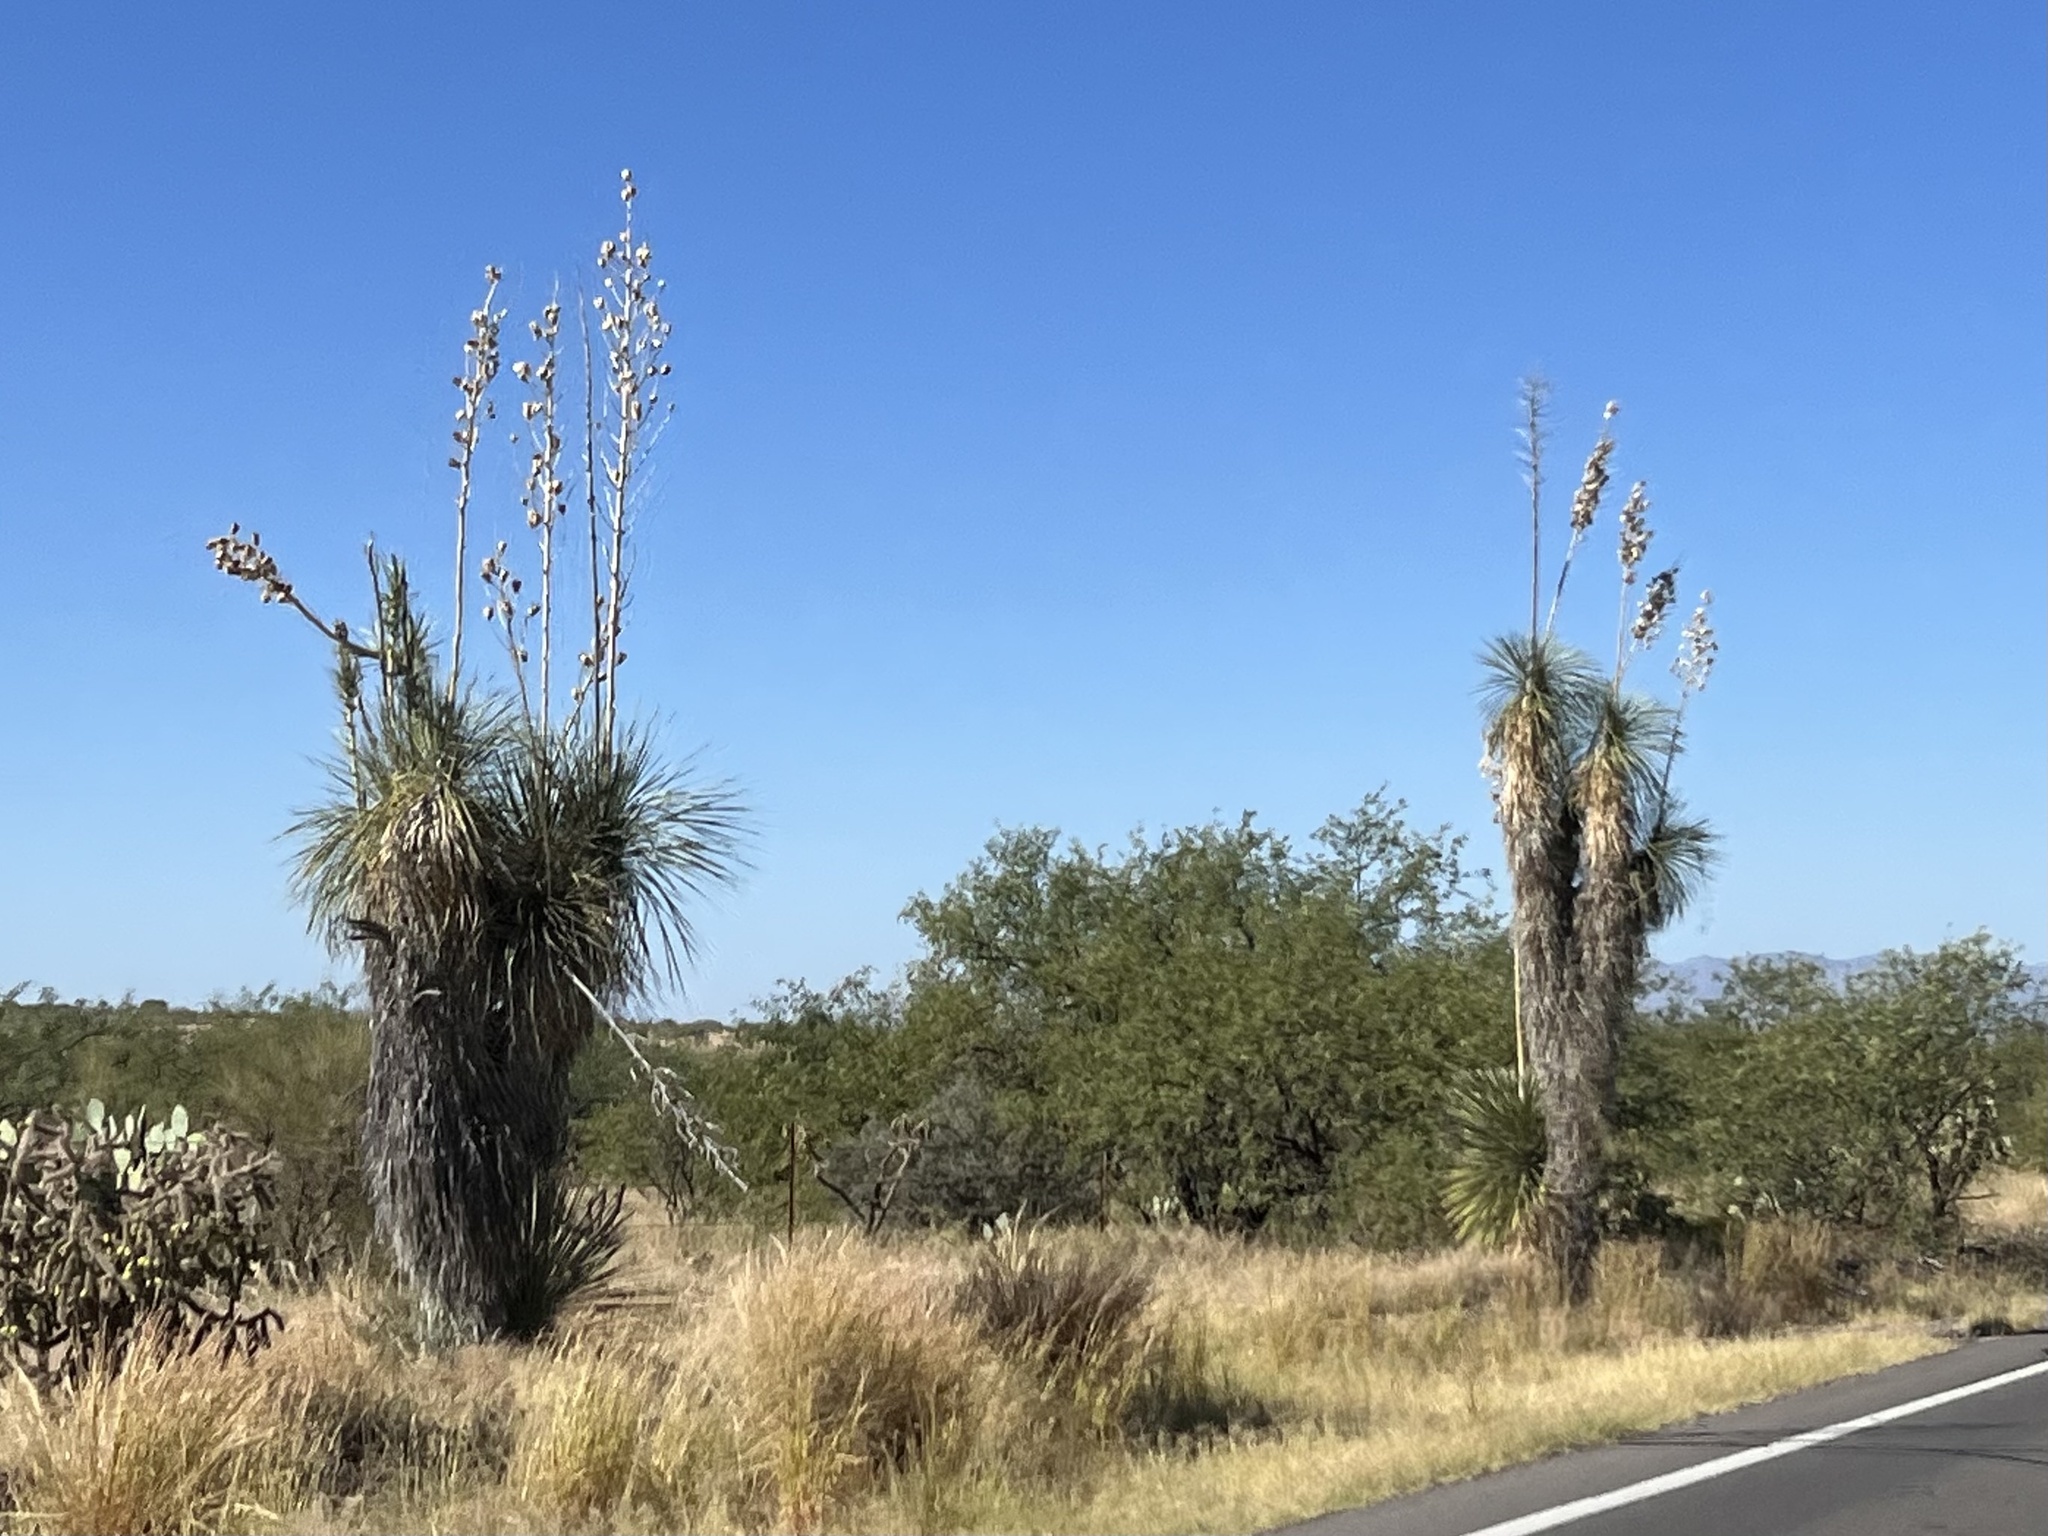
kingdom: Plantae
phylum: Tracheophyta
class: Liliopsida
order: Asparagales
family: Asparagaceae
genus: Yucca
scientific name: Yucca elata
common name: Palmella
